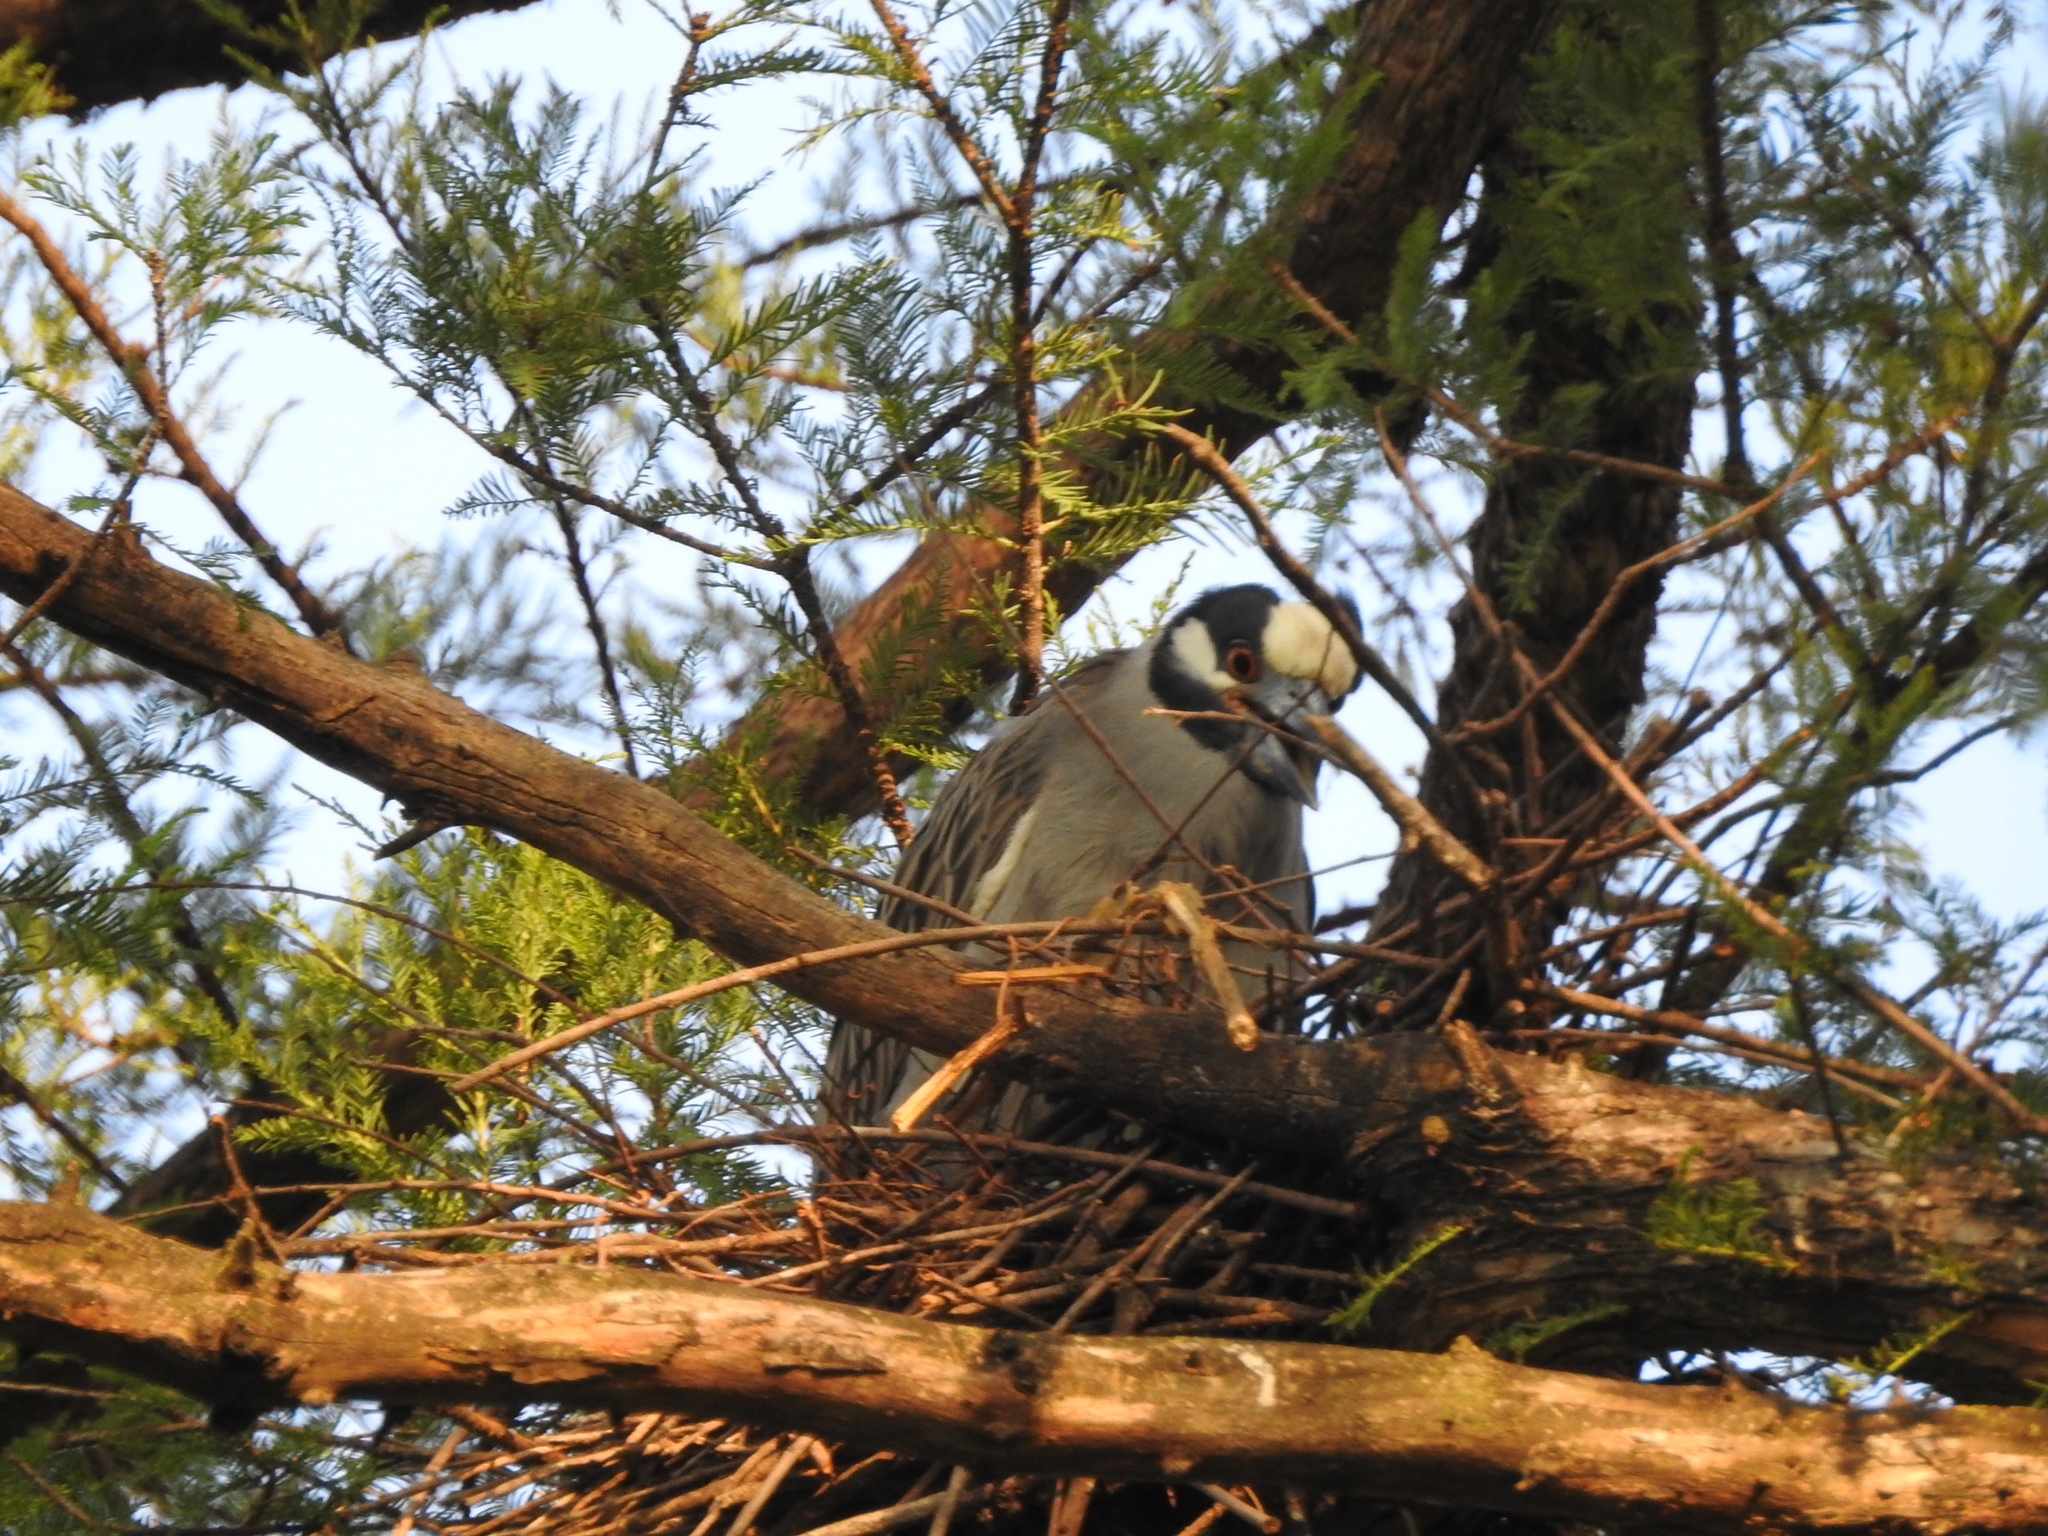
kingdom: Animalia
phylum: Chordata
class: Aves
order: Pelecaniformes
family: Ardeidae
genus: Nyctanassa
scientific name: Nyctanassa violacea
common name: Yellow-crowned night heron
